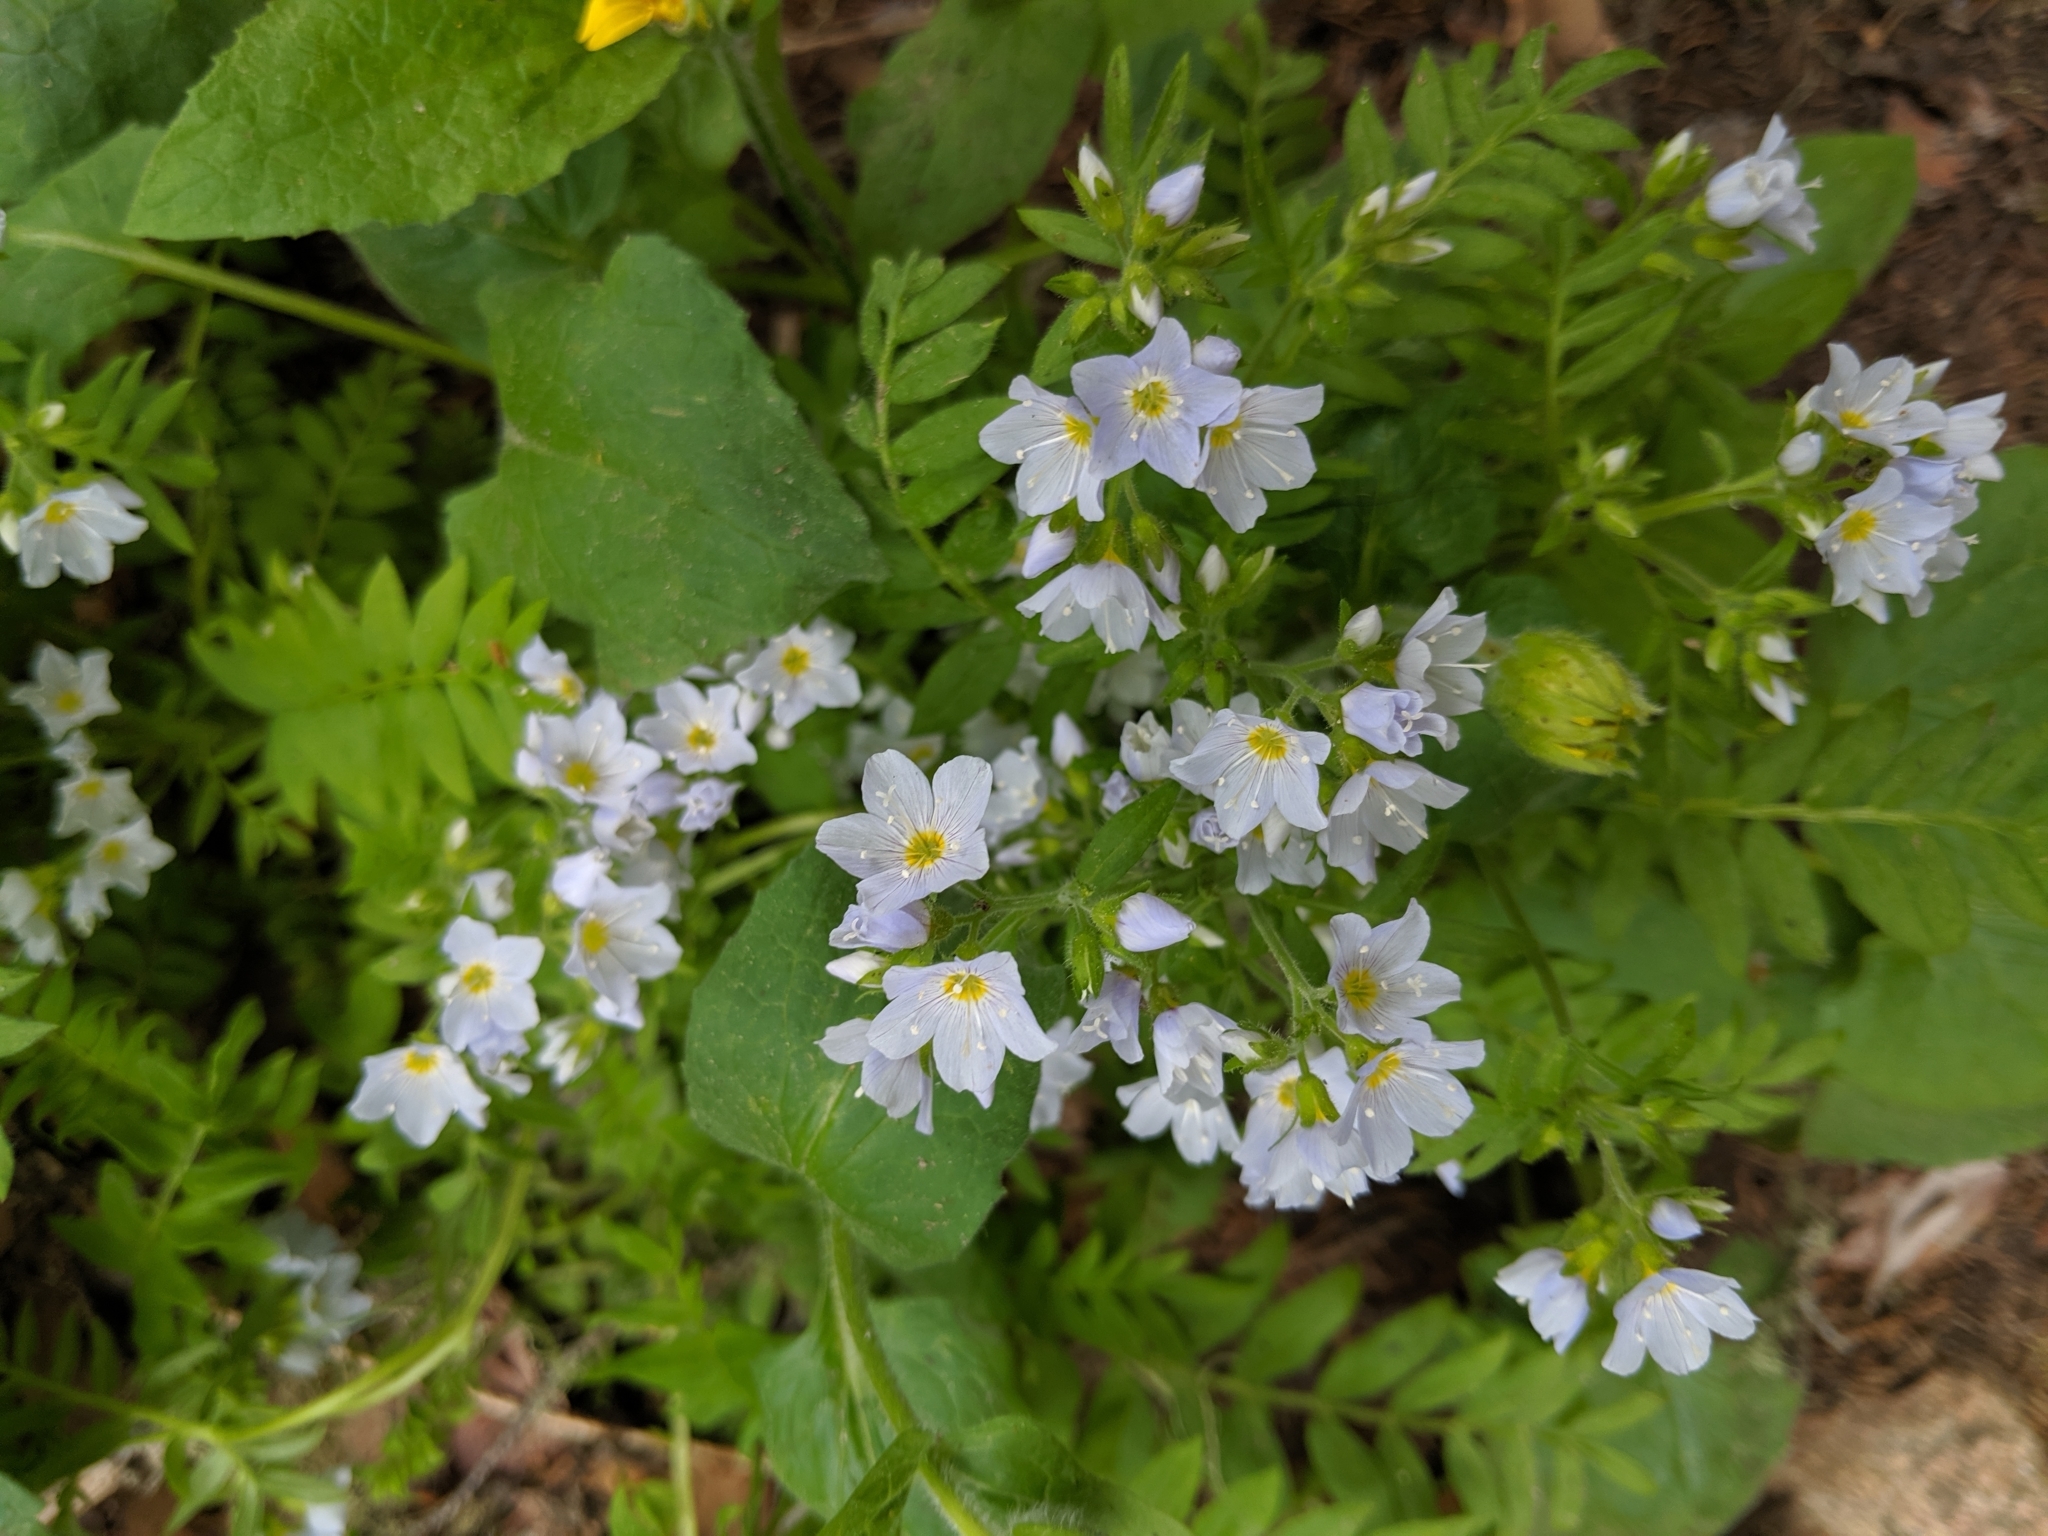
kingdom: Plantae
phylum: Tracheophyta
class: Magnoliopsida
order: Ericales
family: Polemoniaceae
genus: Polemonium
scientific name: Polemonium pulcherrimum
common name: Short jacob's-ladder
